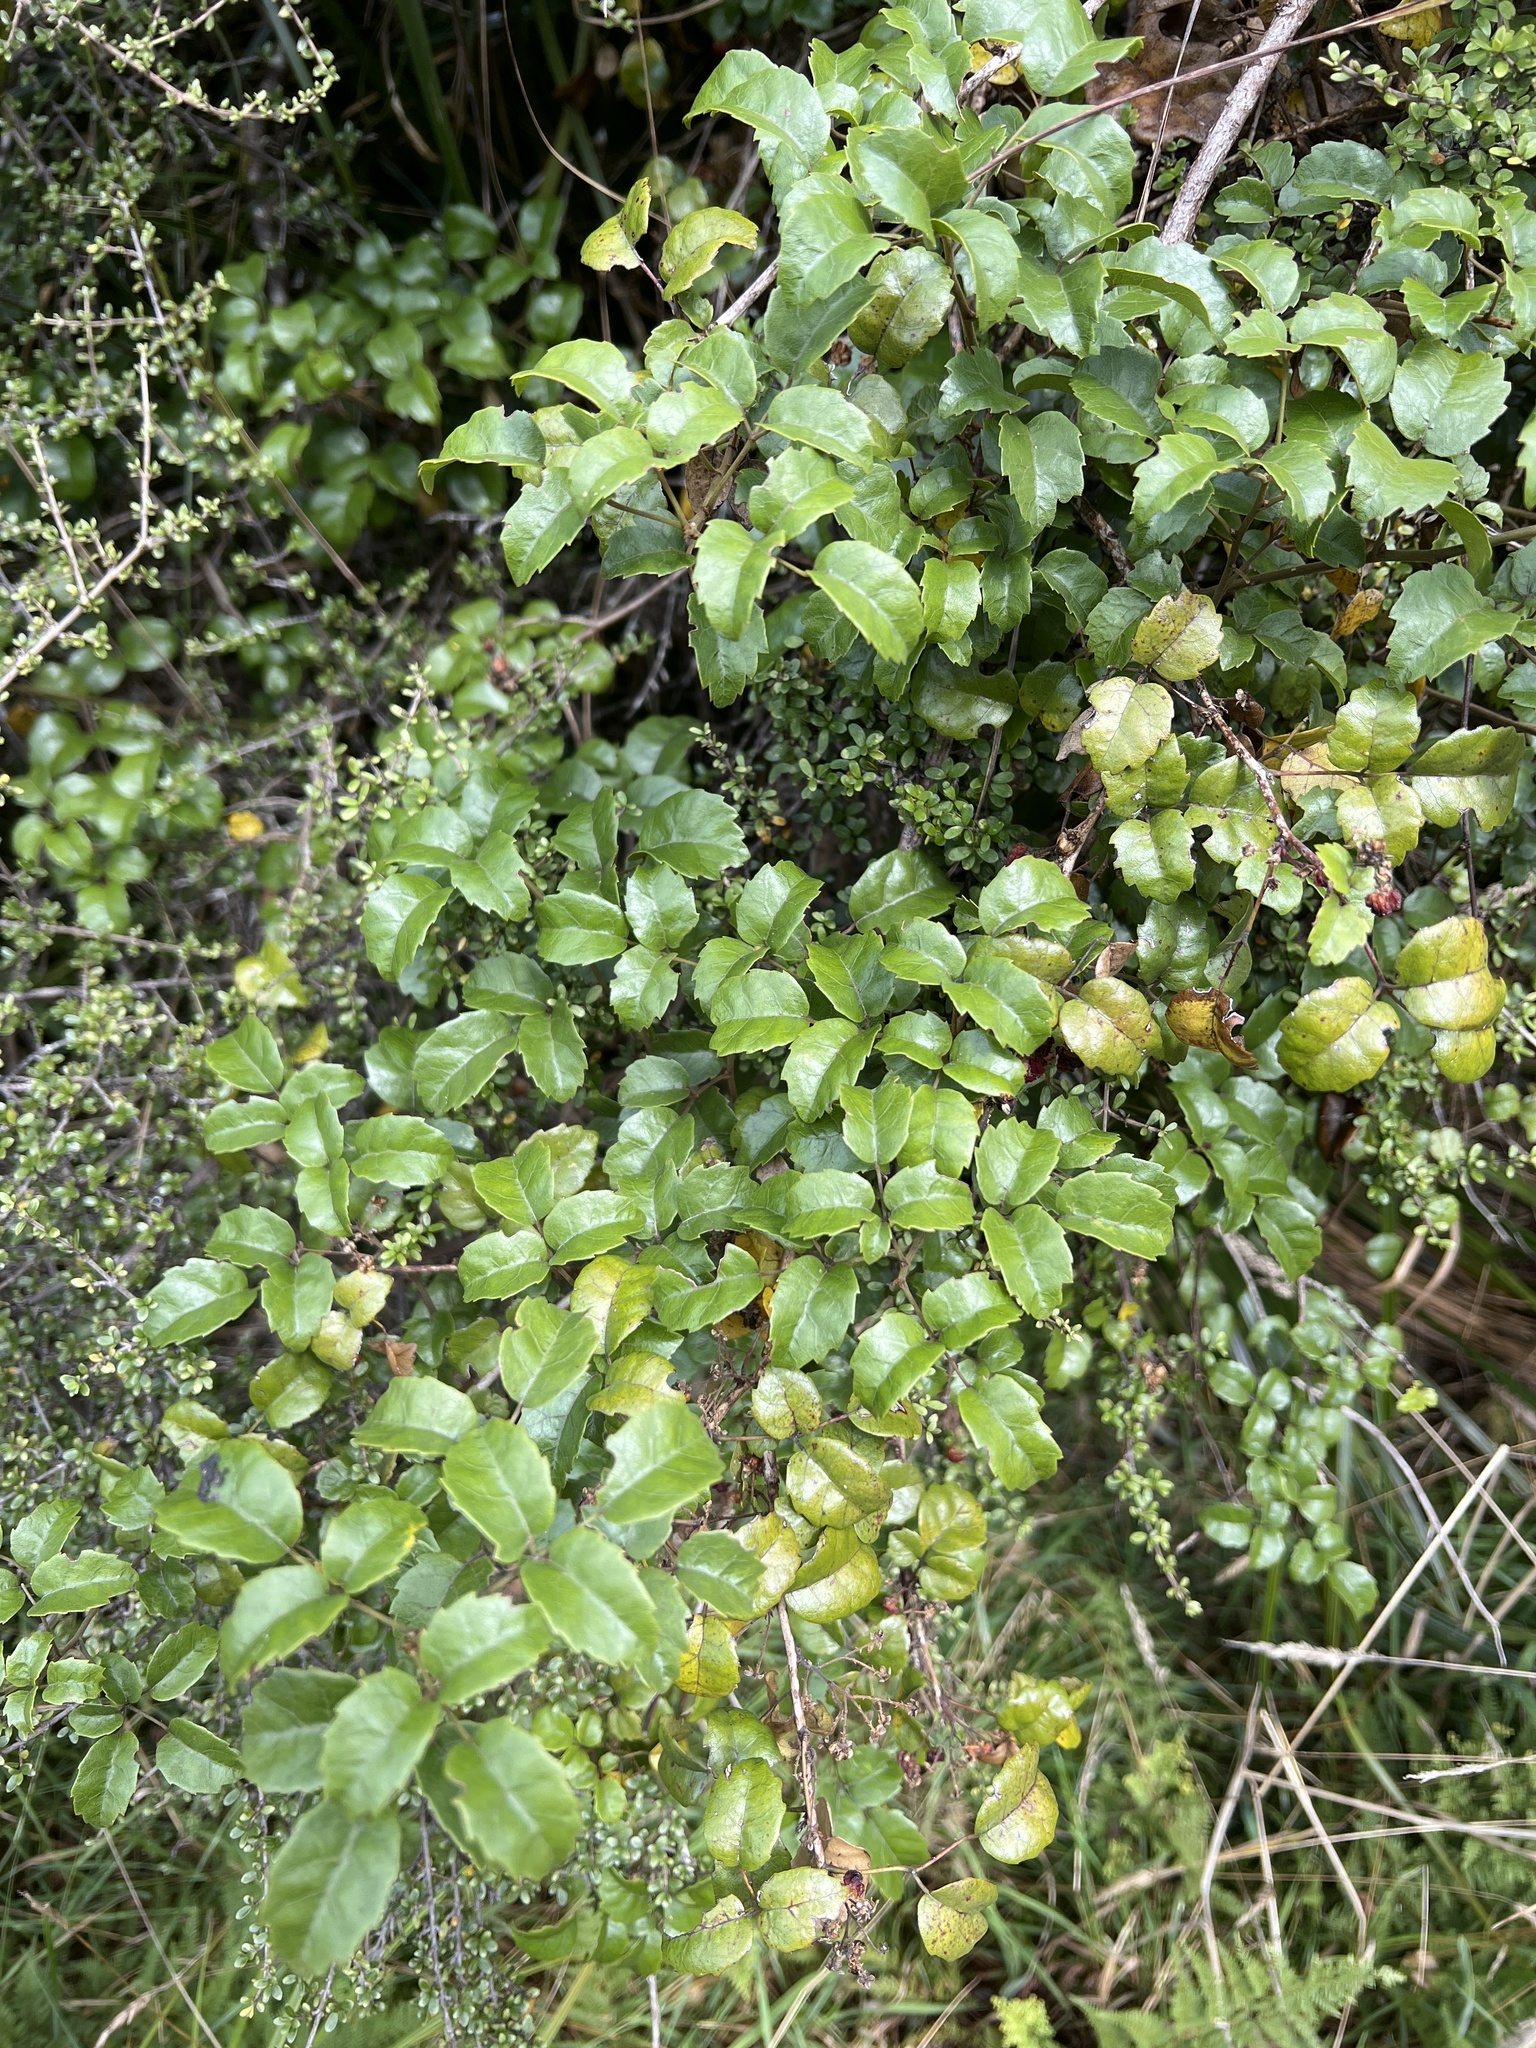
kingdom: Plantae
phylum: Tracheophyta
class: Magnoliopsida
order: Rosales
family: Rosaceae
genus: Rubus
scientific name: Rubus australis
